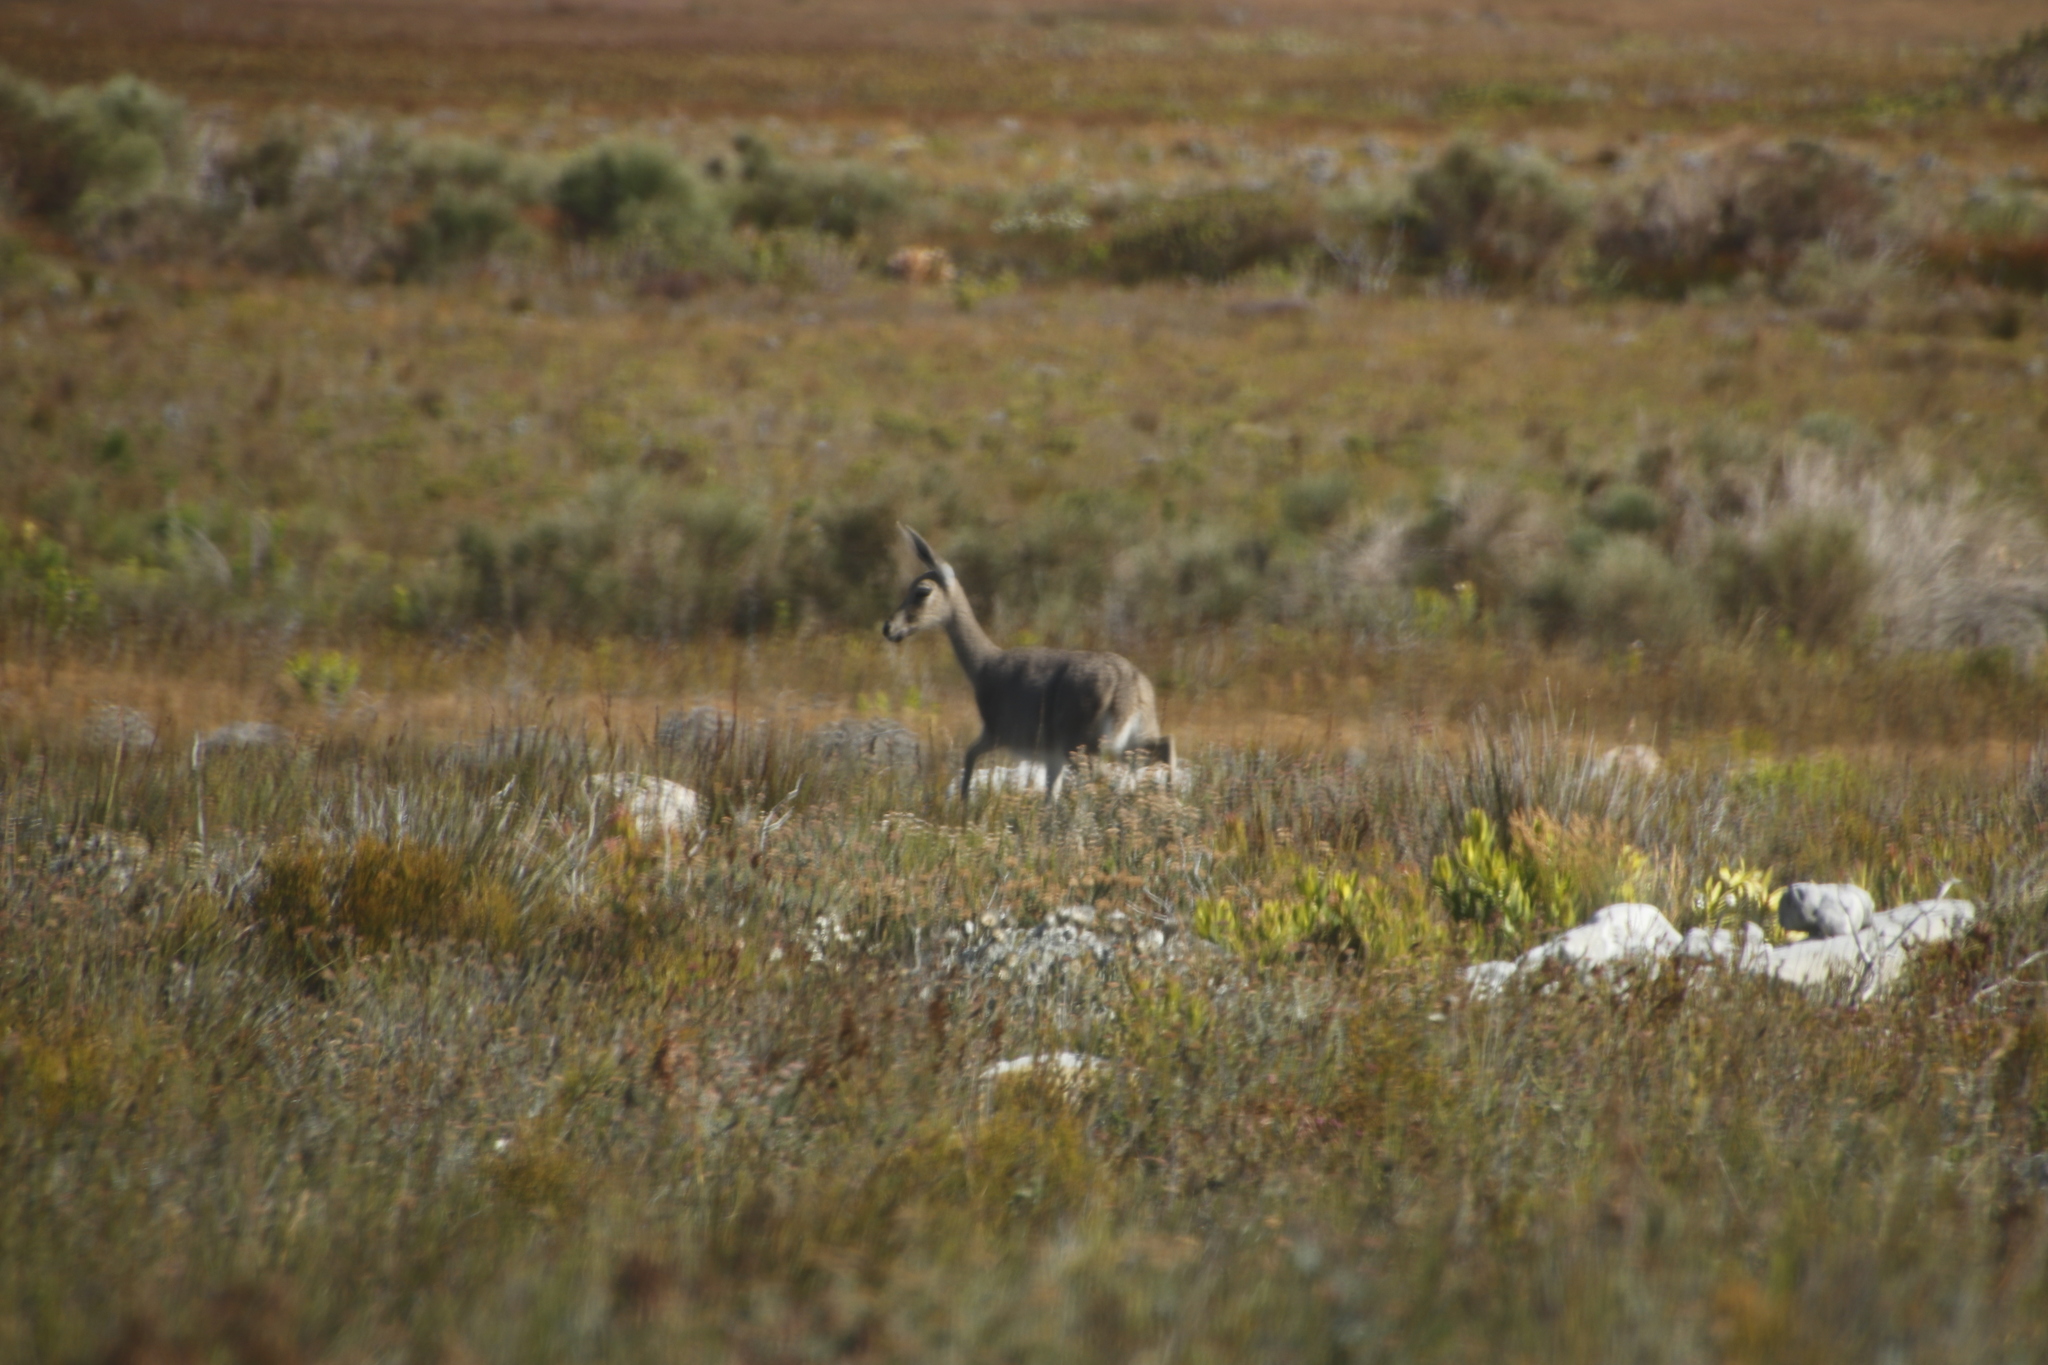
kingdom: Animalia
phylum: Chordata
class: Mammalia
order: Artiodactyla
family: Bovidae
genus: Pelea
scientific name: Pelea capreolus
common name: Common rhebok
